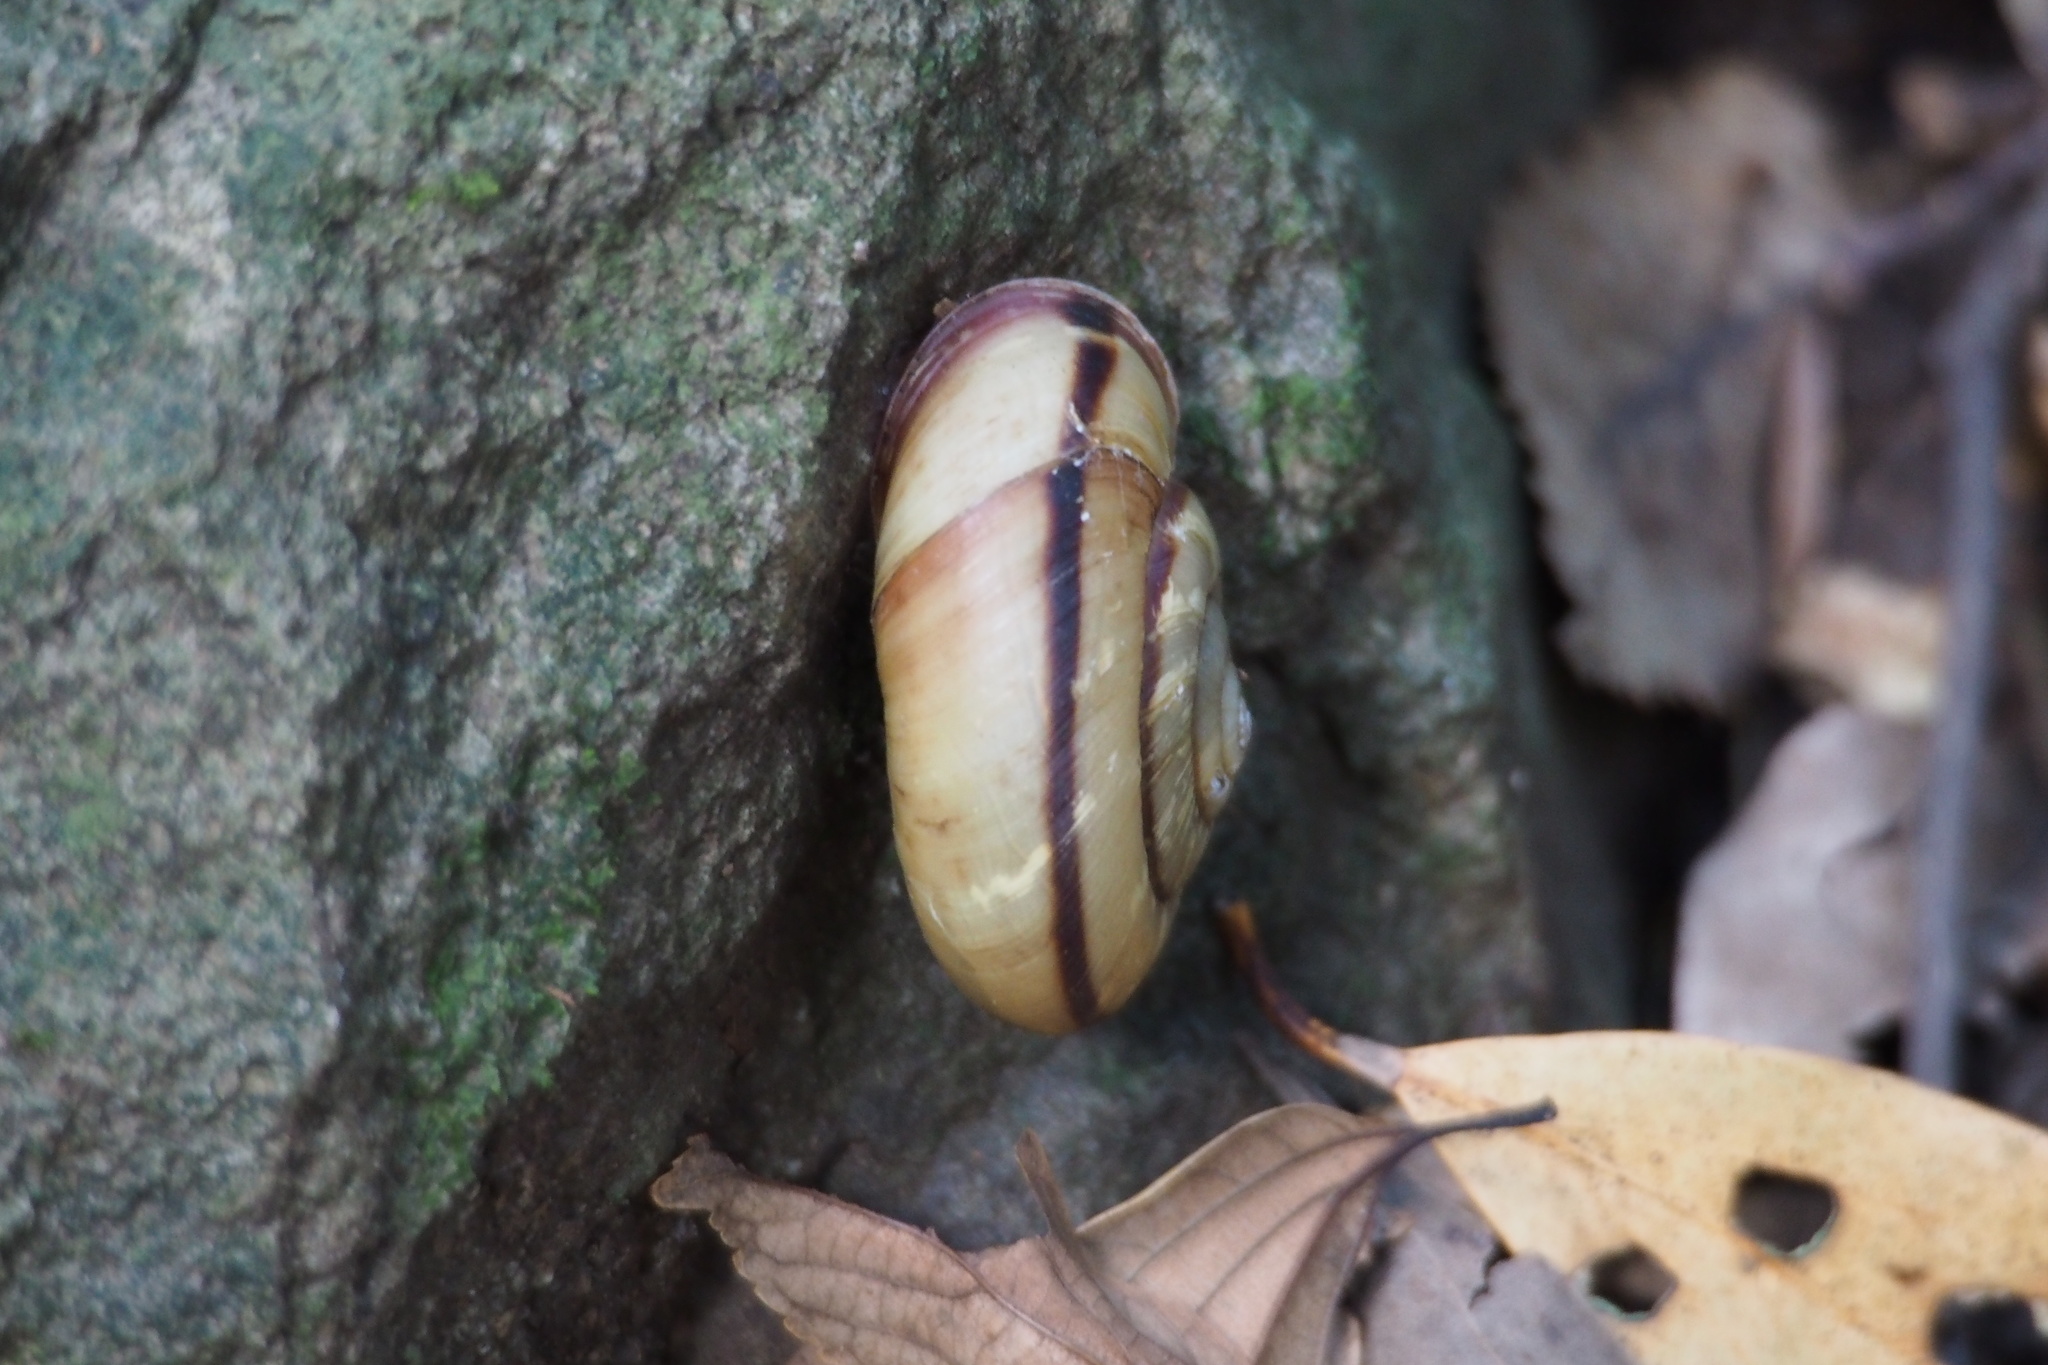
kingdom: Animalia
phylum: Mollusca
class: Gastropoda
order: Stylommatophora
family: Camaenidae
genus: Euhadra
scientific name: Euhadra peliomphala
